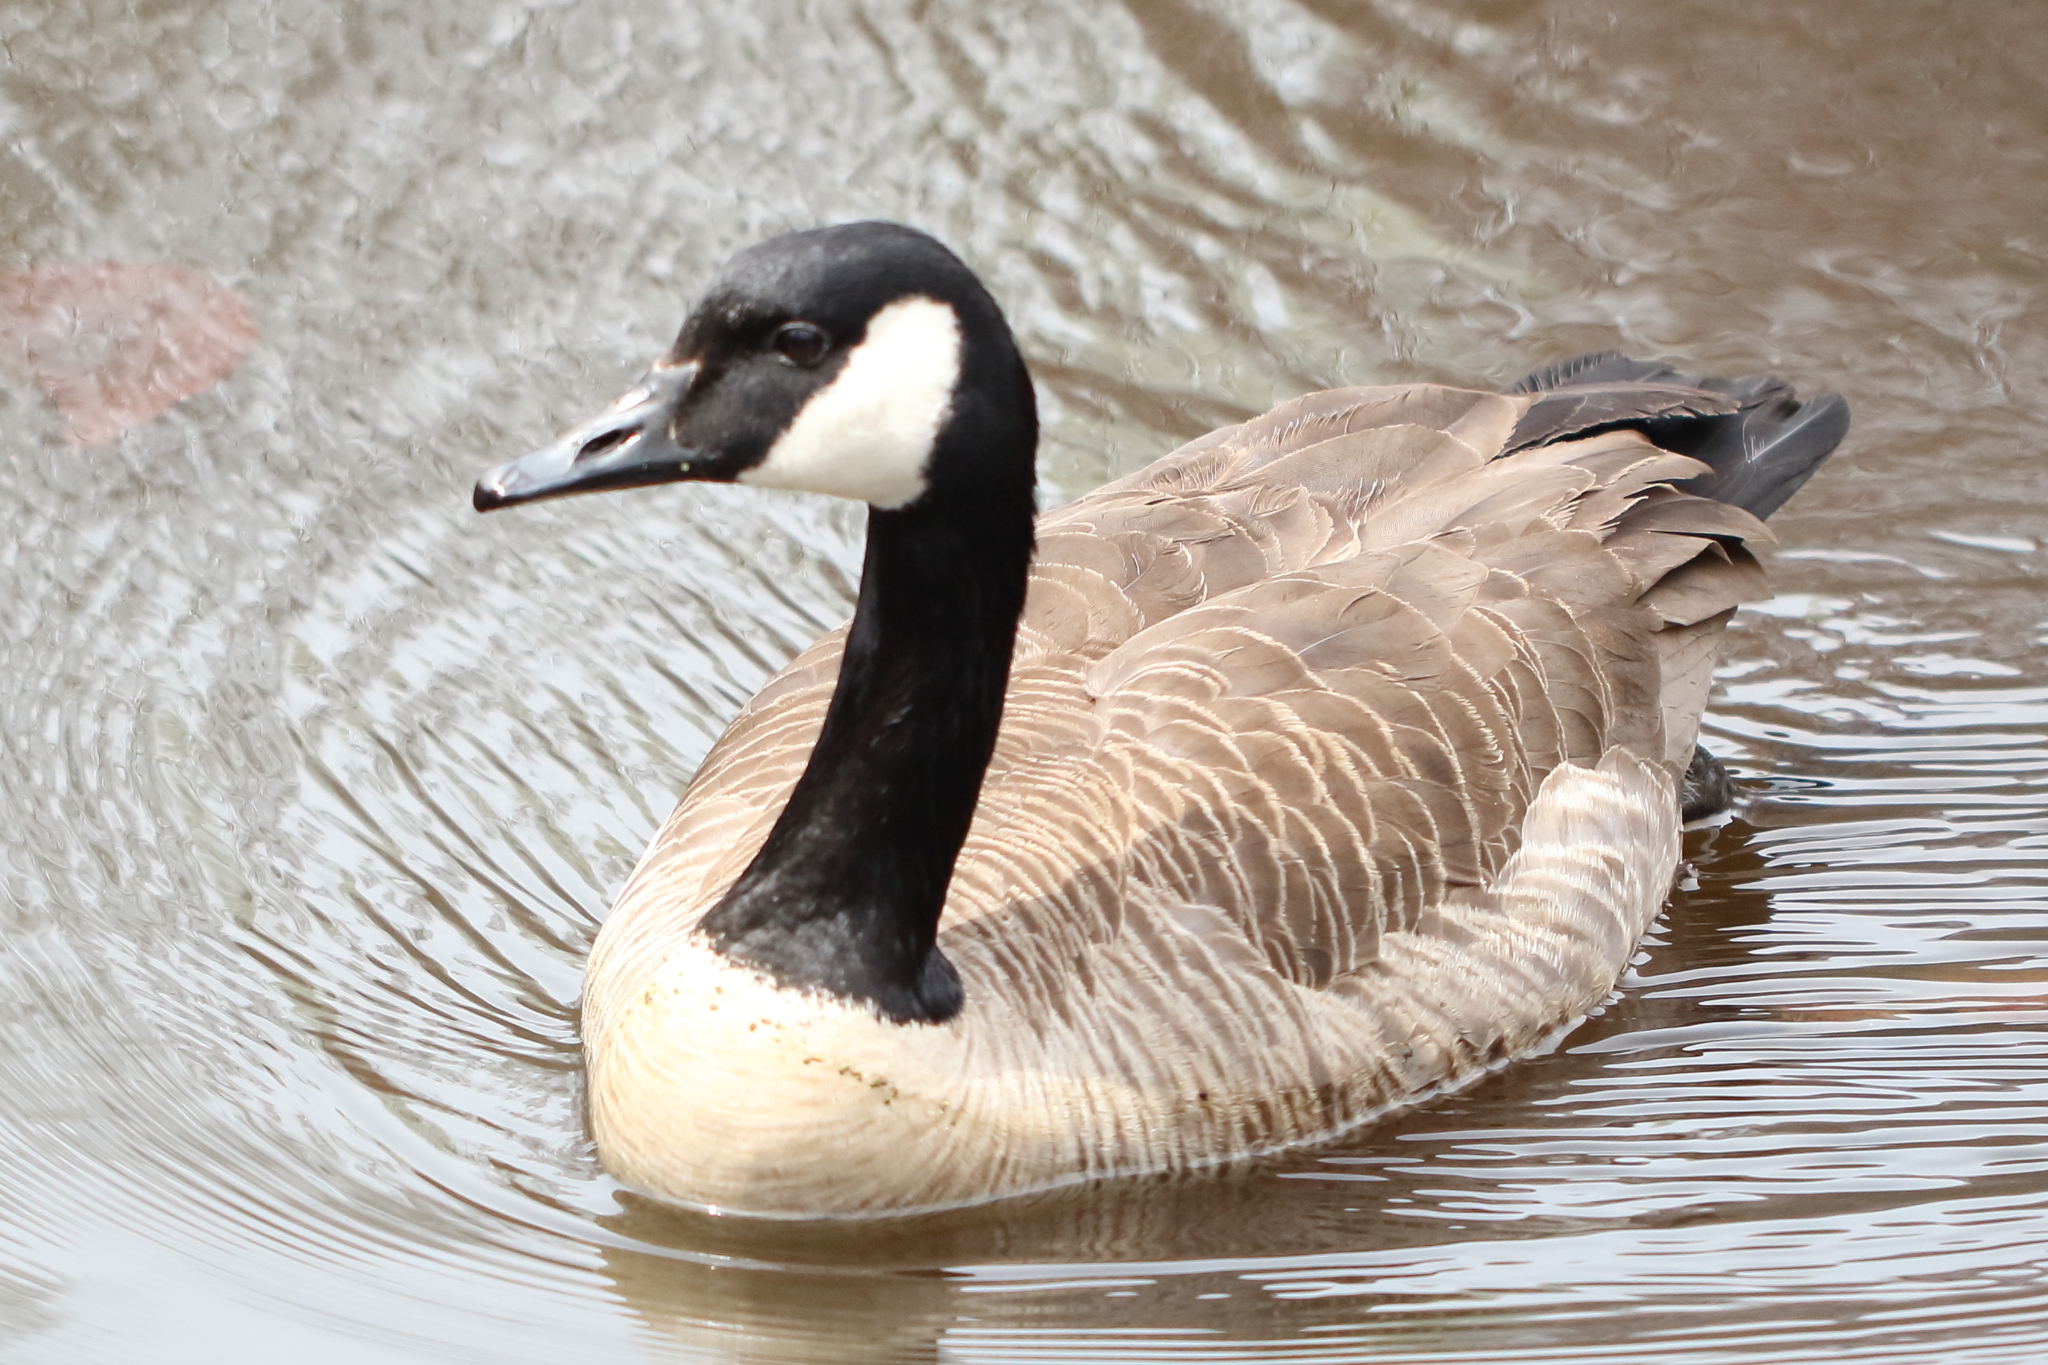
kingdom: Animalia
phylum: Chordata
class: Aves
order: Anseriformes
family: Anatidae
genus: Branta
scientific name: Branta canadensis
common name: Canada goose
